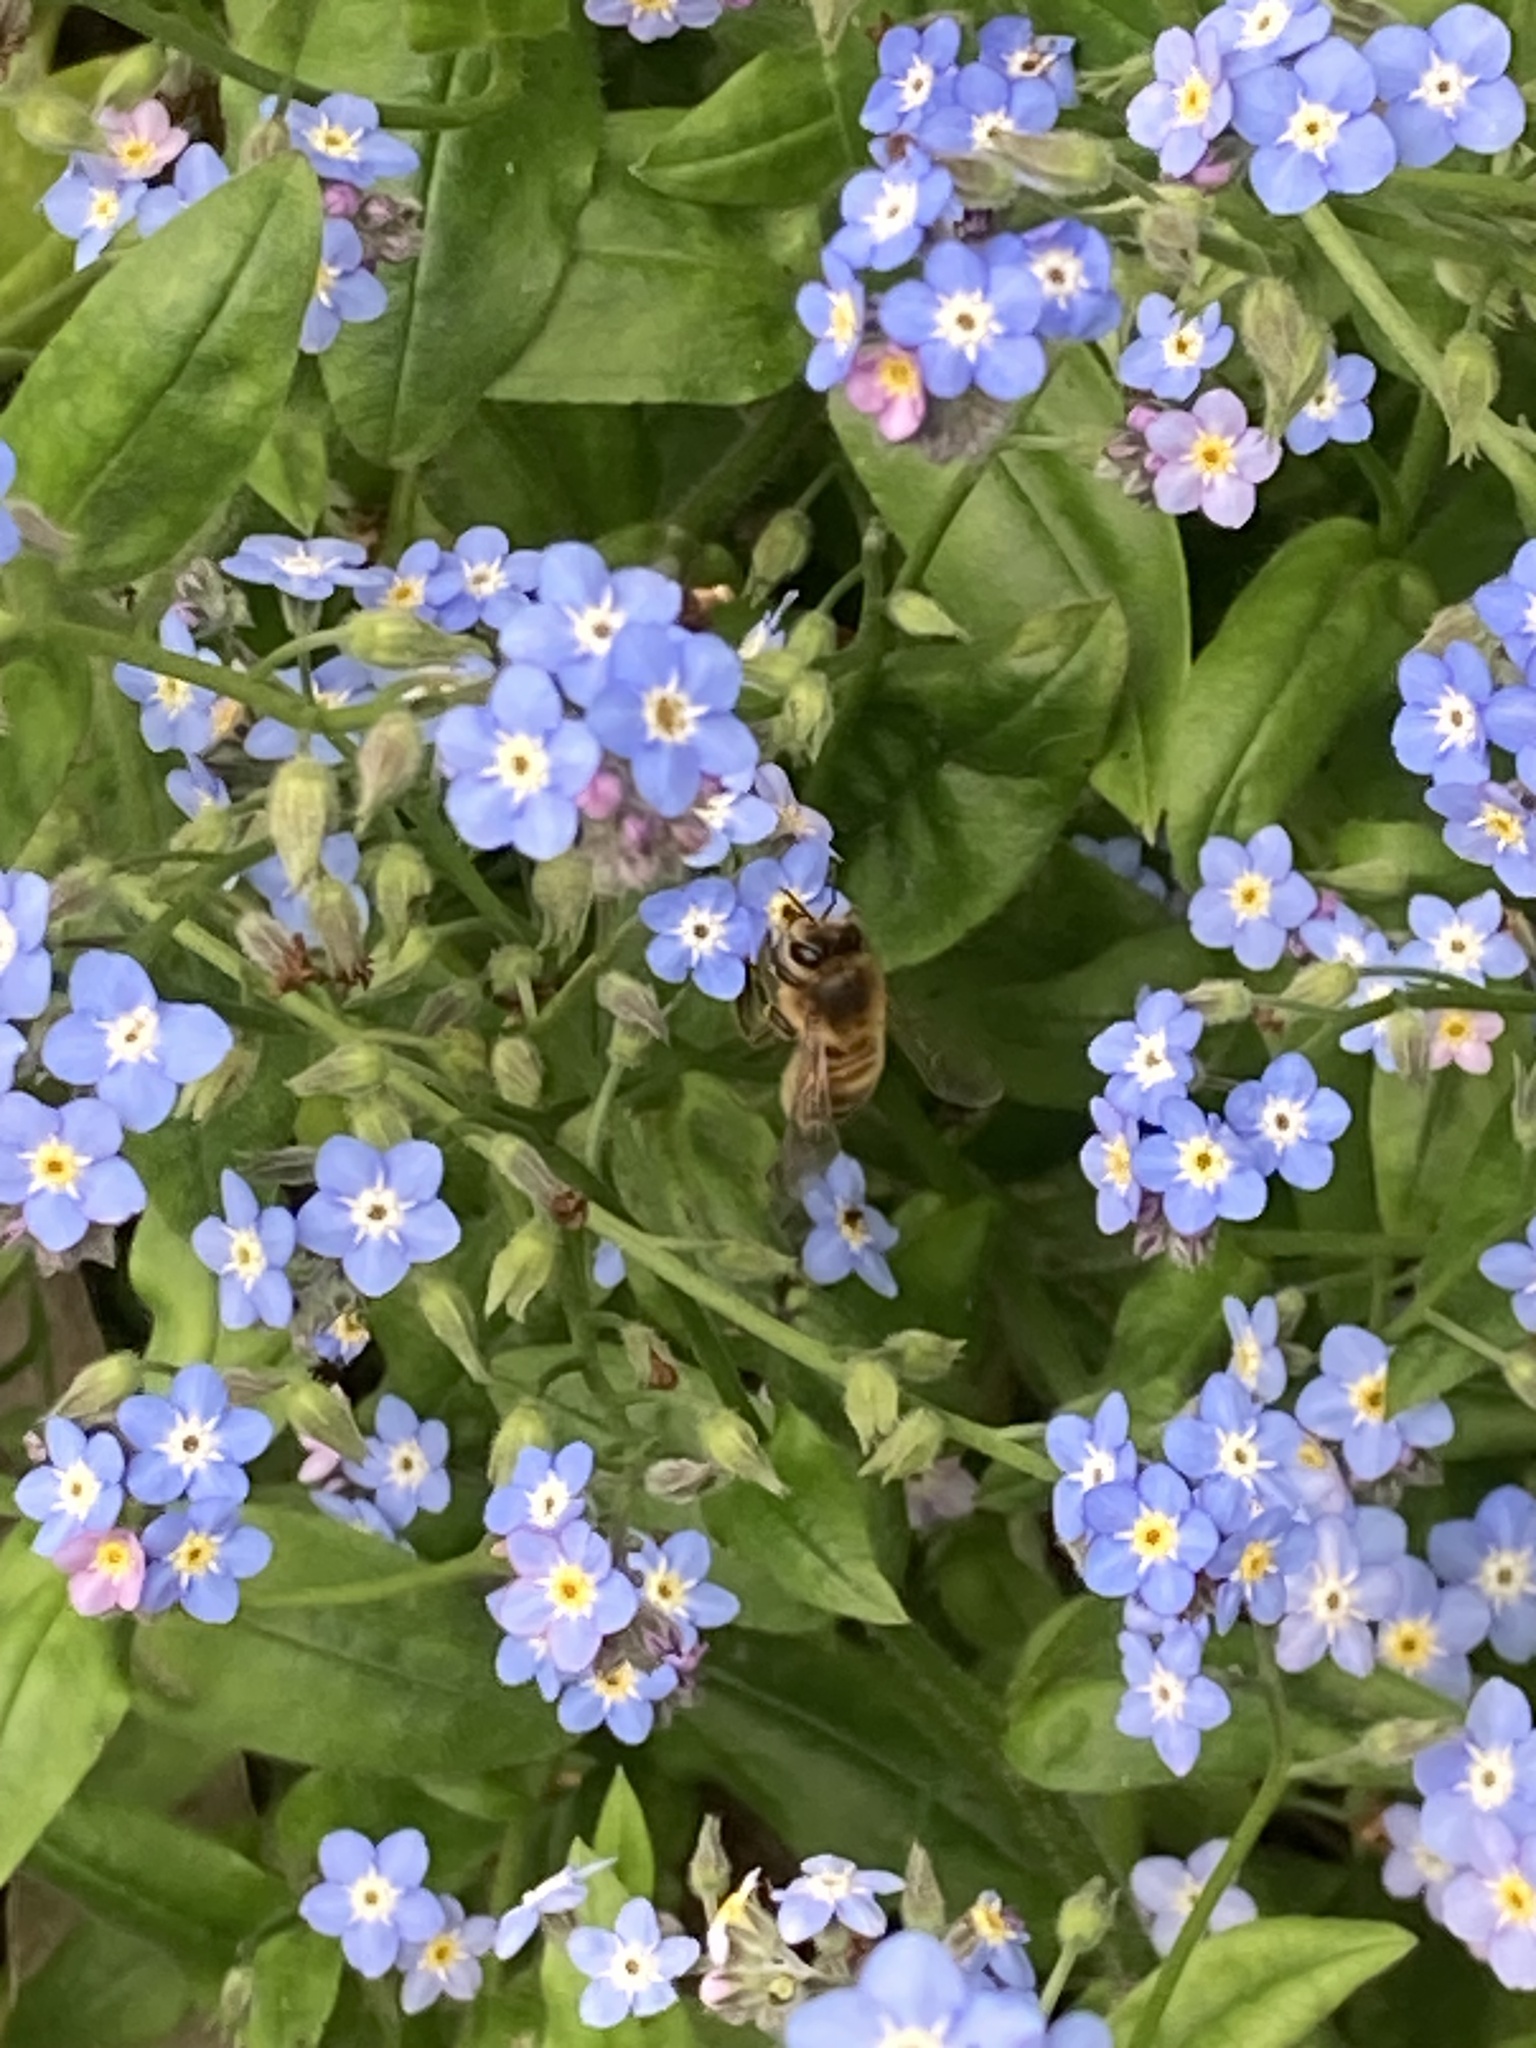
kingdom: Plantae
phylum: Tracheophyta
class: Magnoliopsida
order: Boraginales
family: Boraginaceae
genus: Myosotis
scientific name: Myosotis sylvatica
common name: Wood forget-me-not
